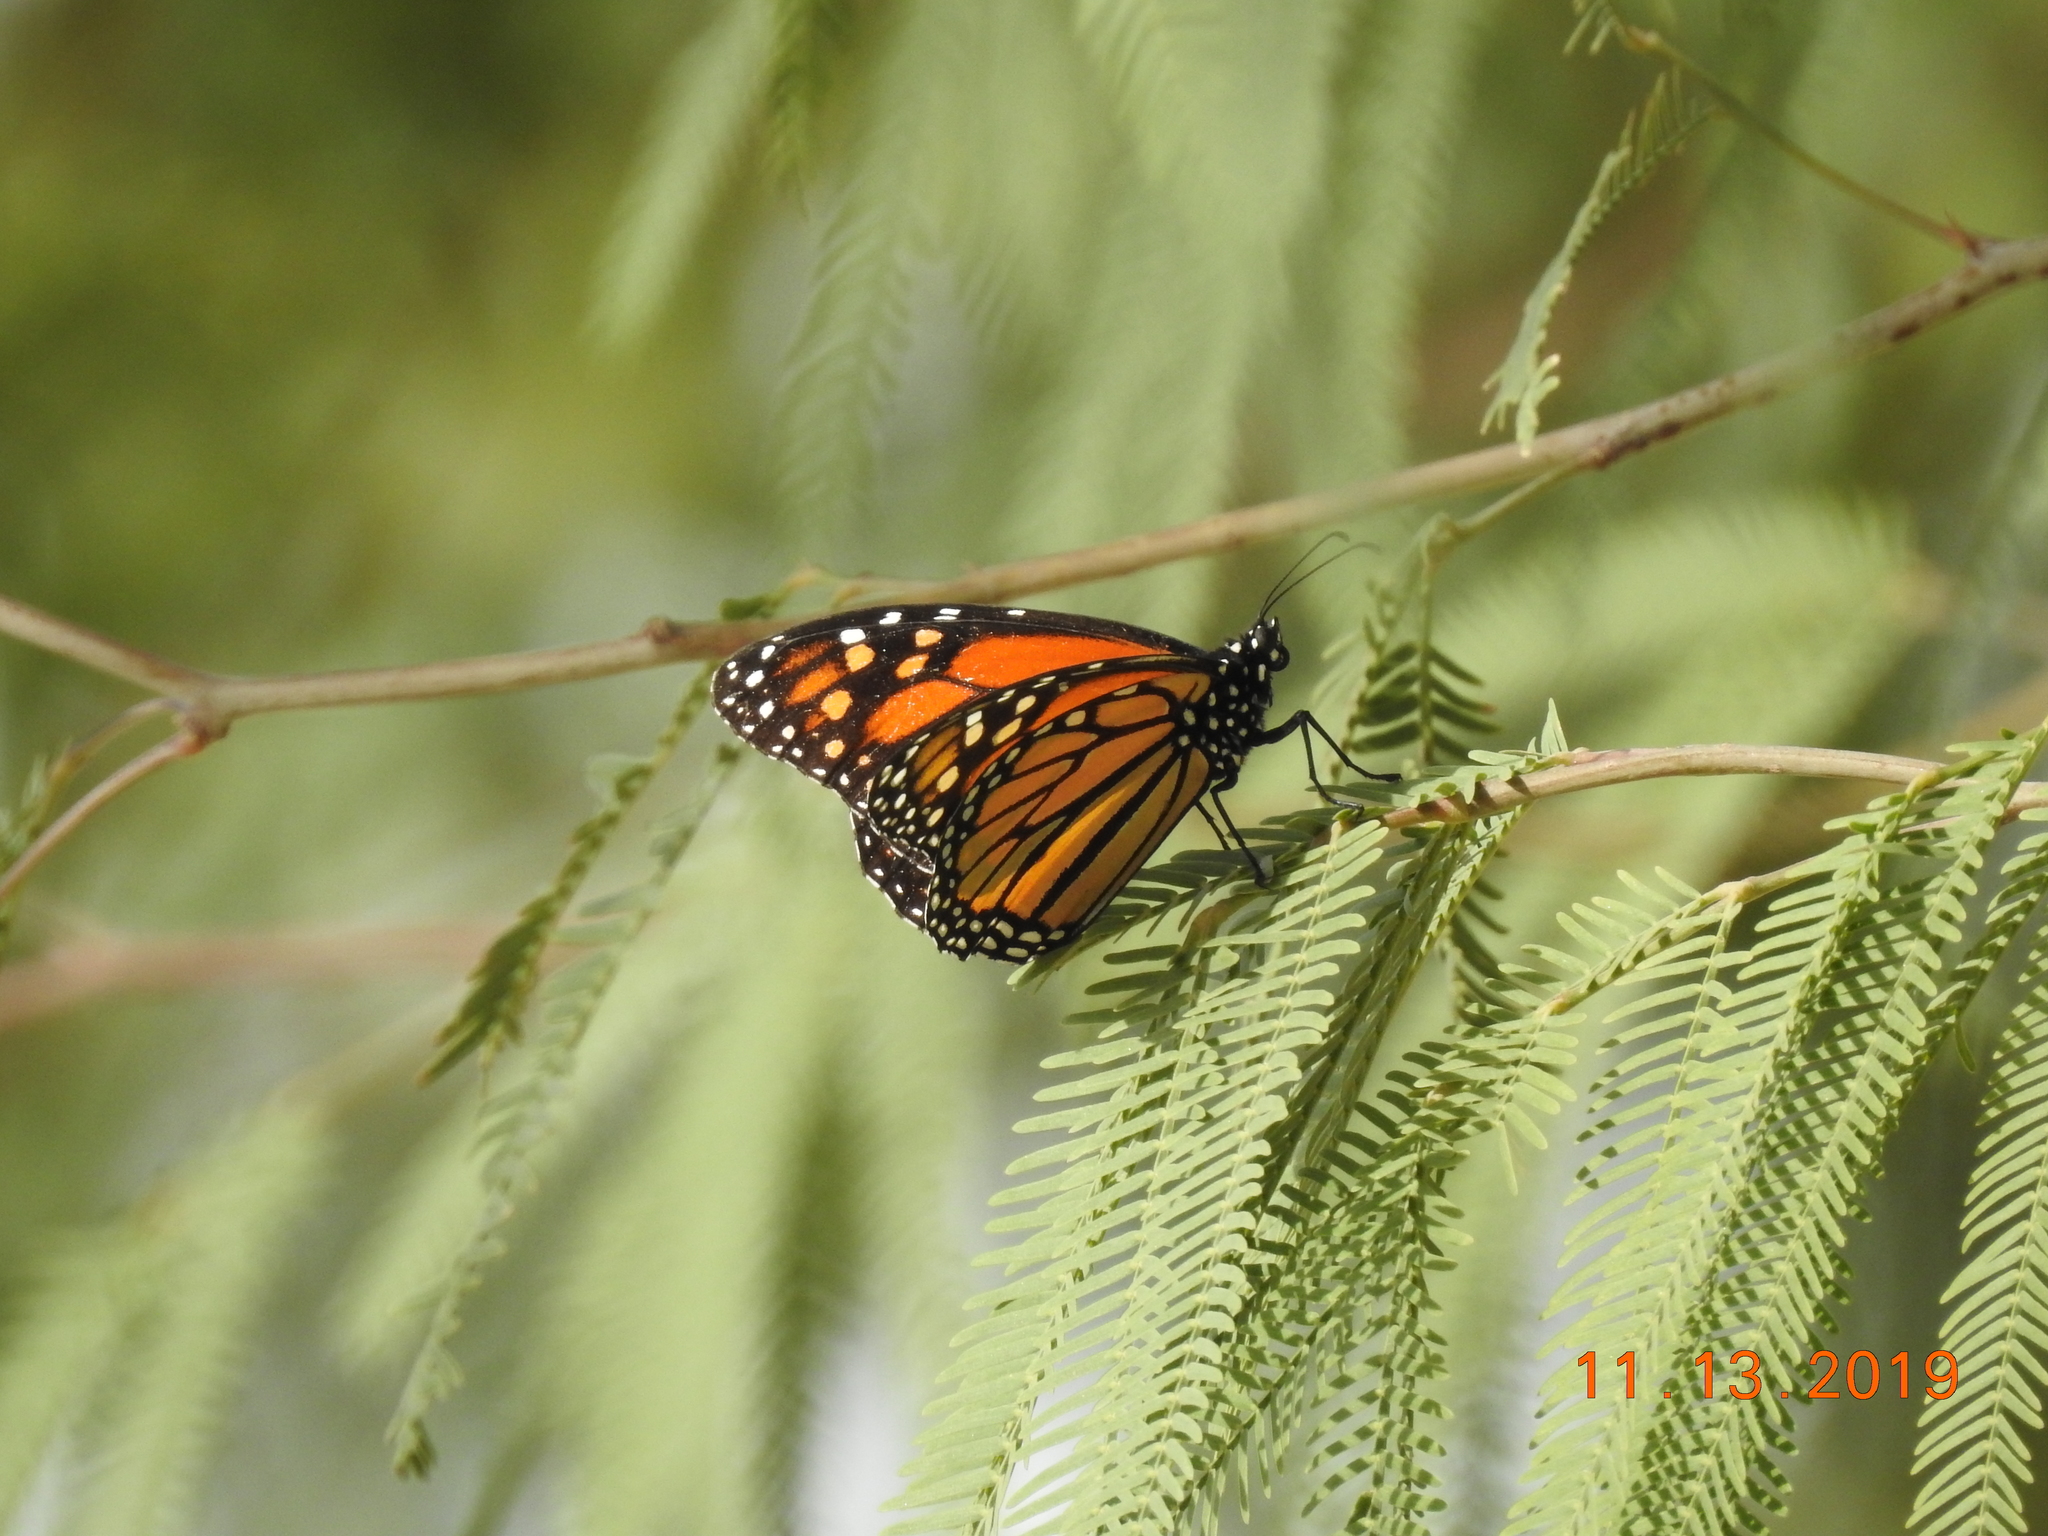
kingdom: Animalia
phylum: Arthropoda
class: Insecta
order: Lepidoptera
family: Nymphalidae
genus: Danaus
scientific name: Danaus plexippus
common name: Monarch
